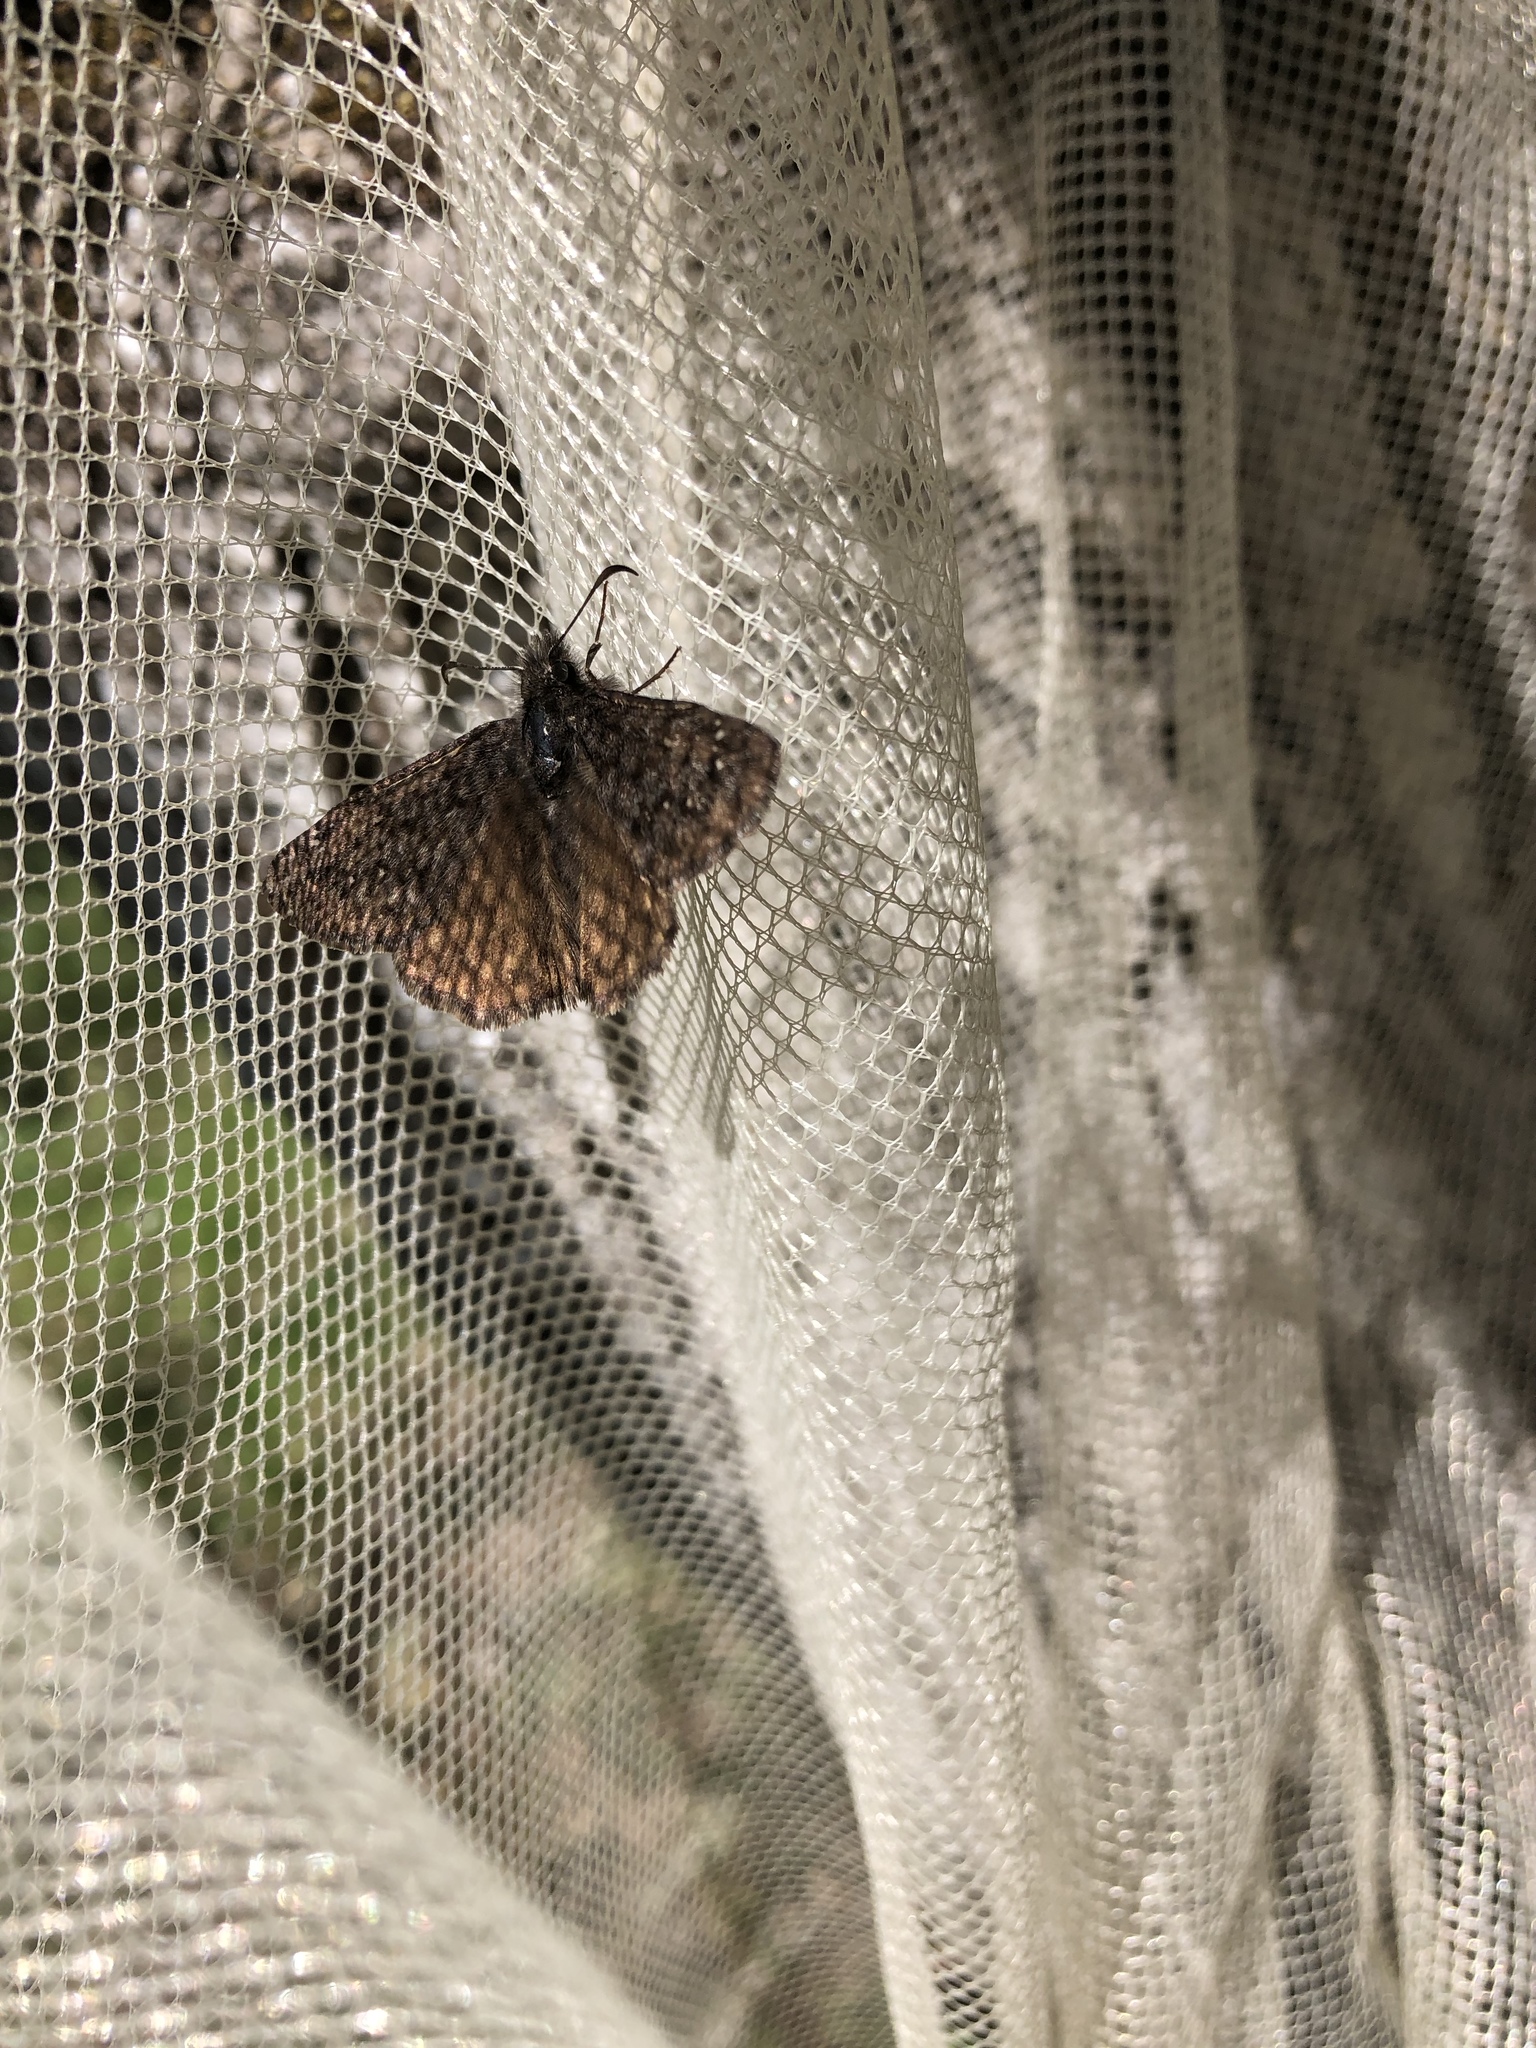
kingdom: Animalia
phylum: Arthropoda
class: Insecta
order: Lepidoptera
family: Hesperiidae
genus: Erynnis
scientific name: Erynnis propertius
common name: Propertius duskywing
